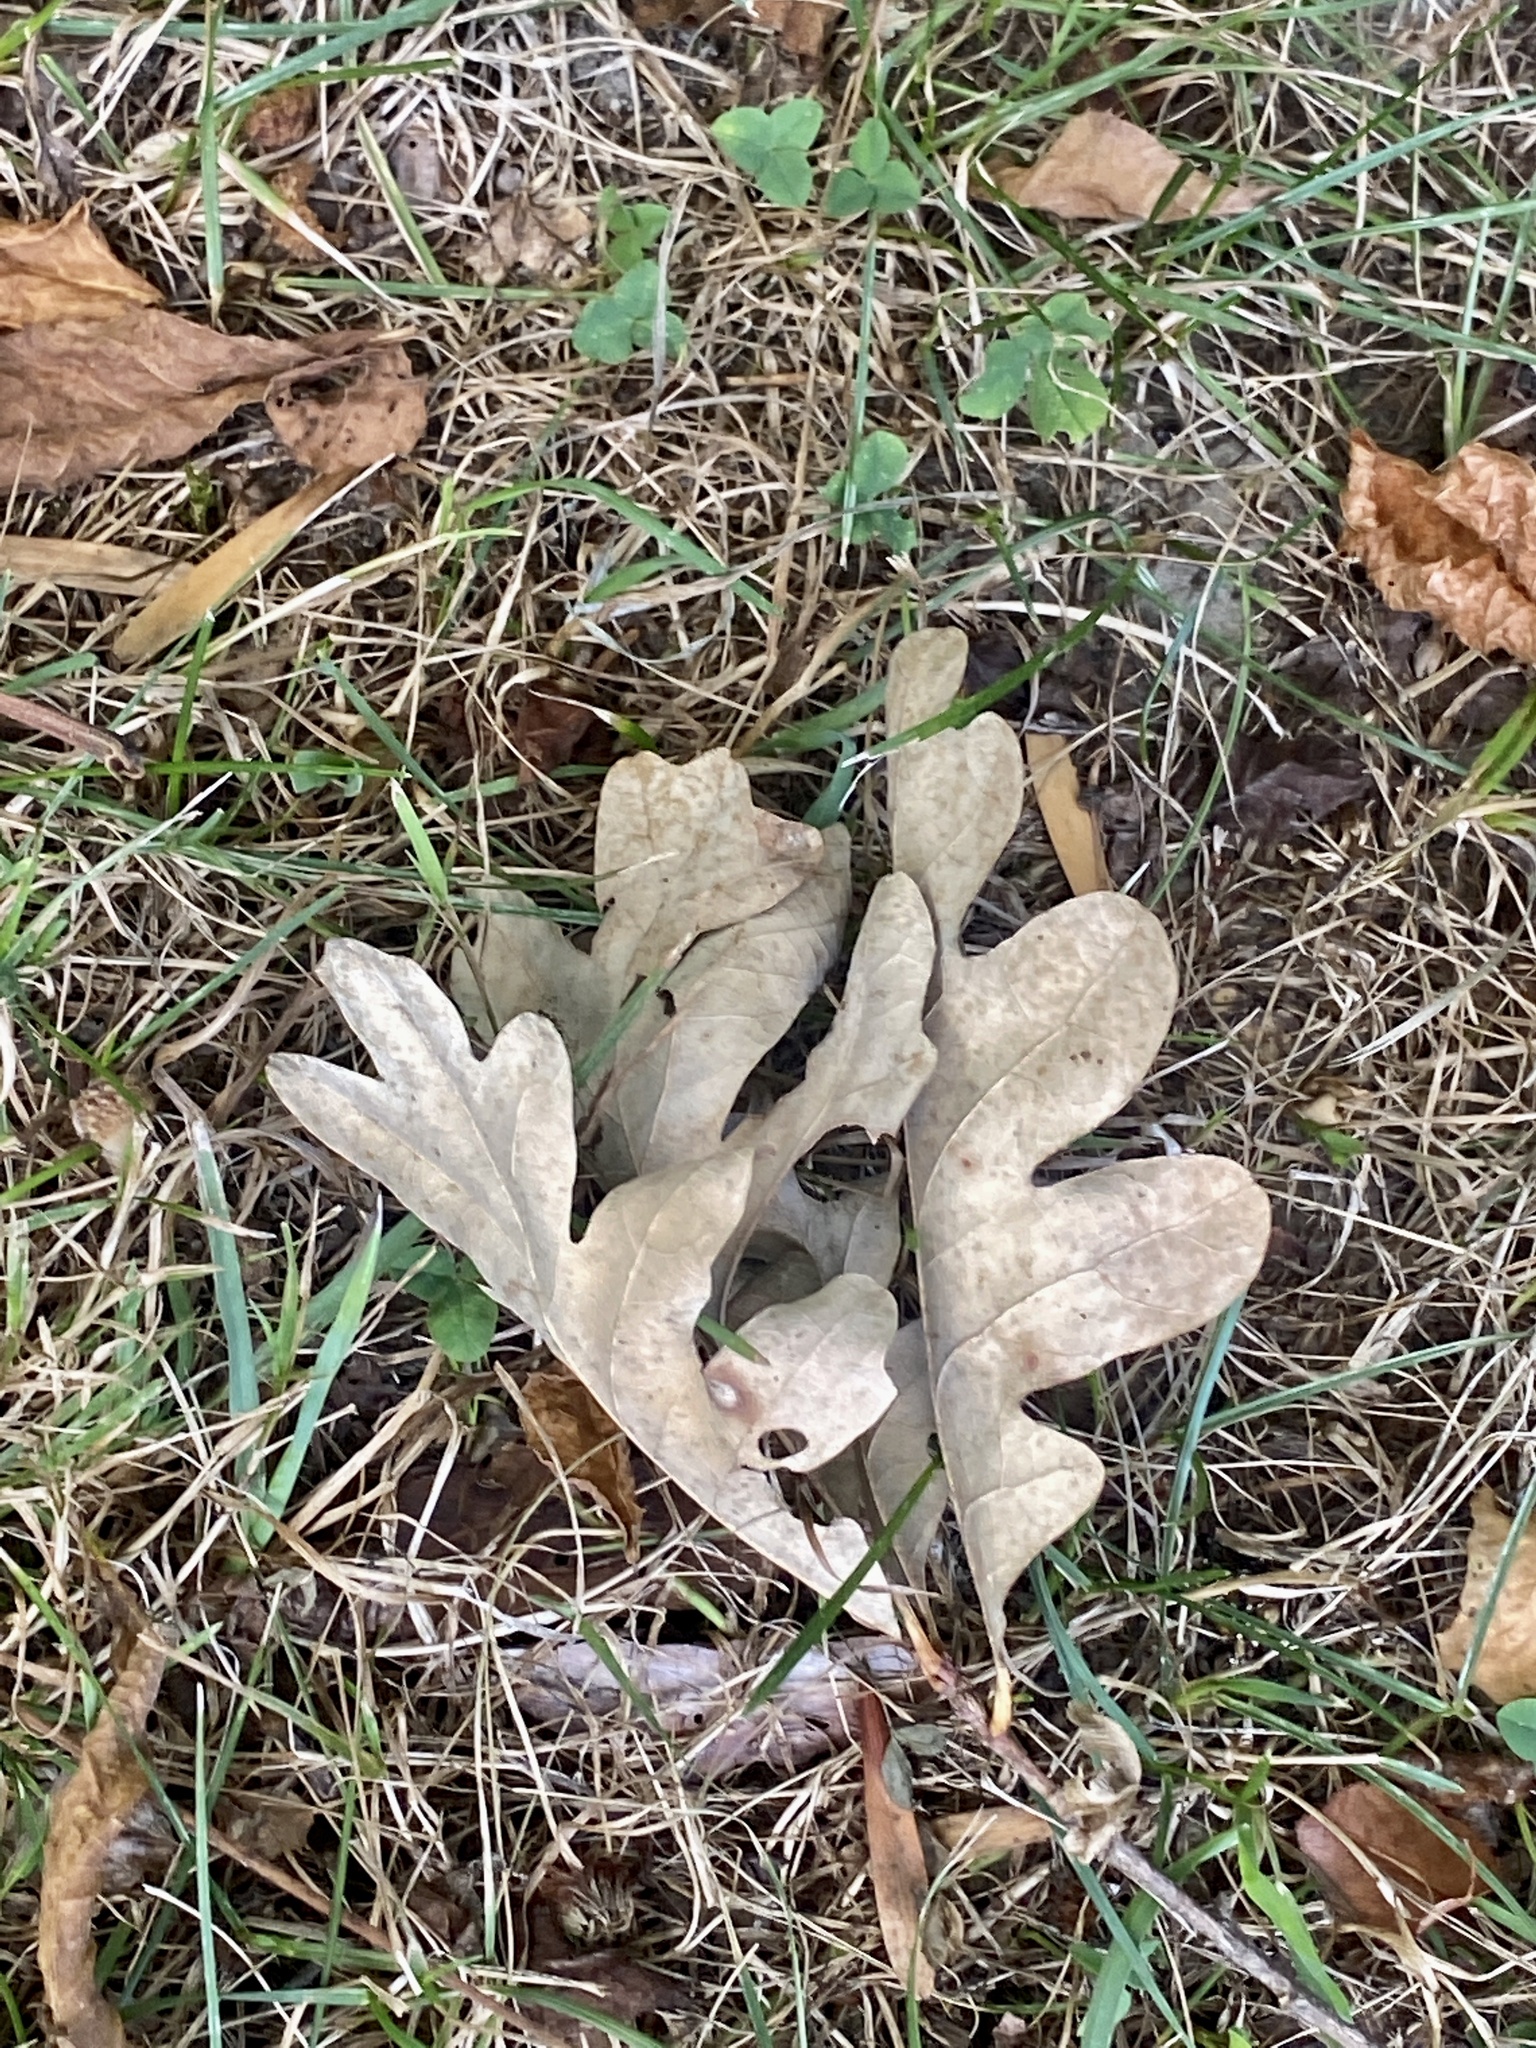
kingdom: Plantae
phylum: Tracheophyta
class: Magnoliopsida
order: Fagales
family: Fagaceae
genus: Quercus
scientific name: Quercus alba
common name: White oak
